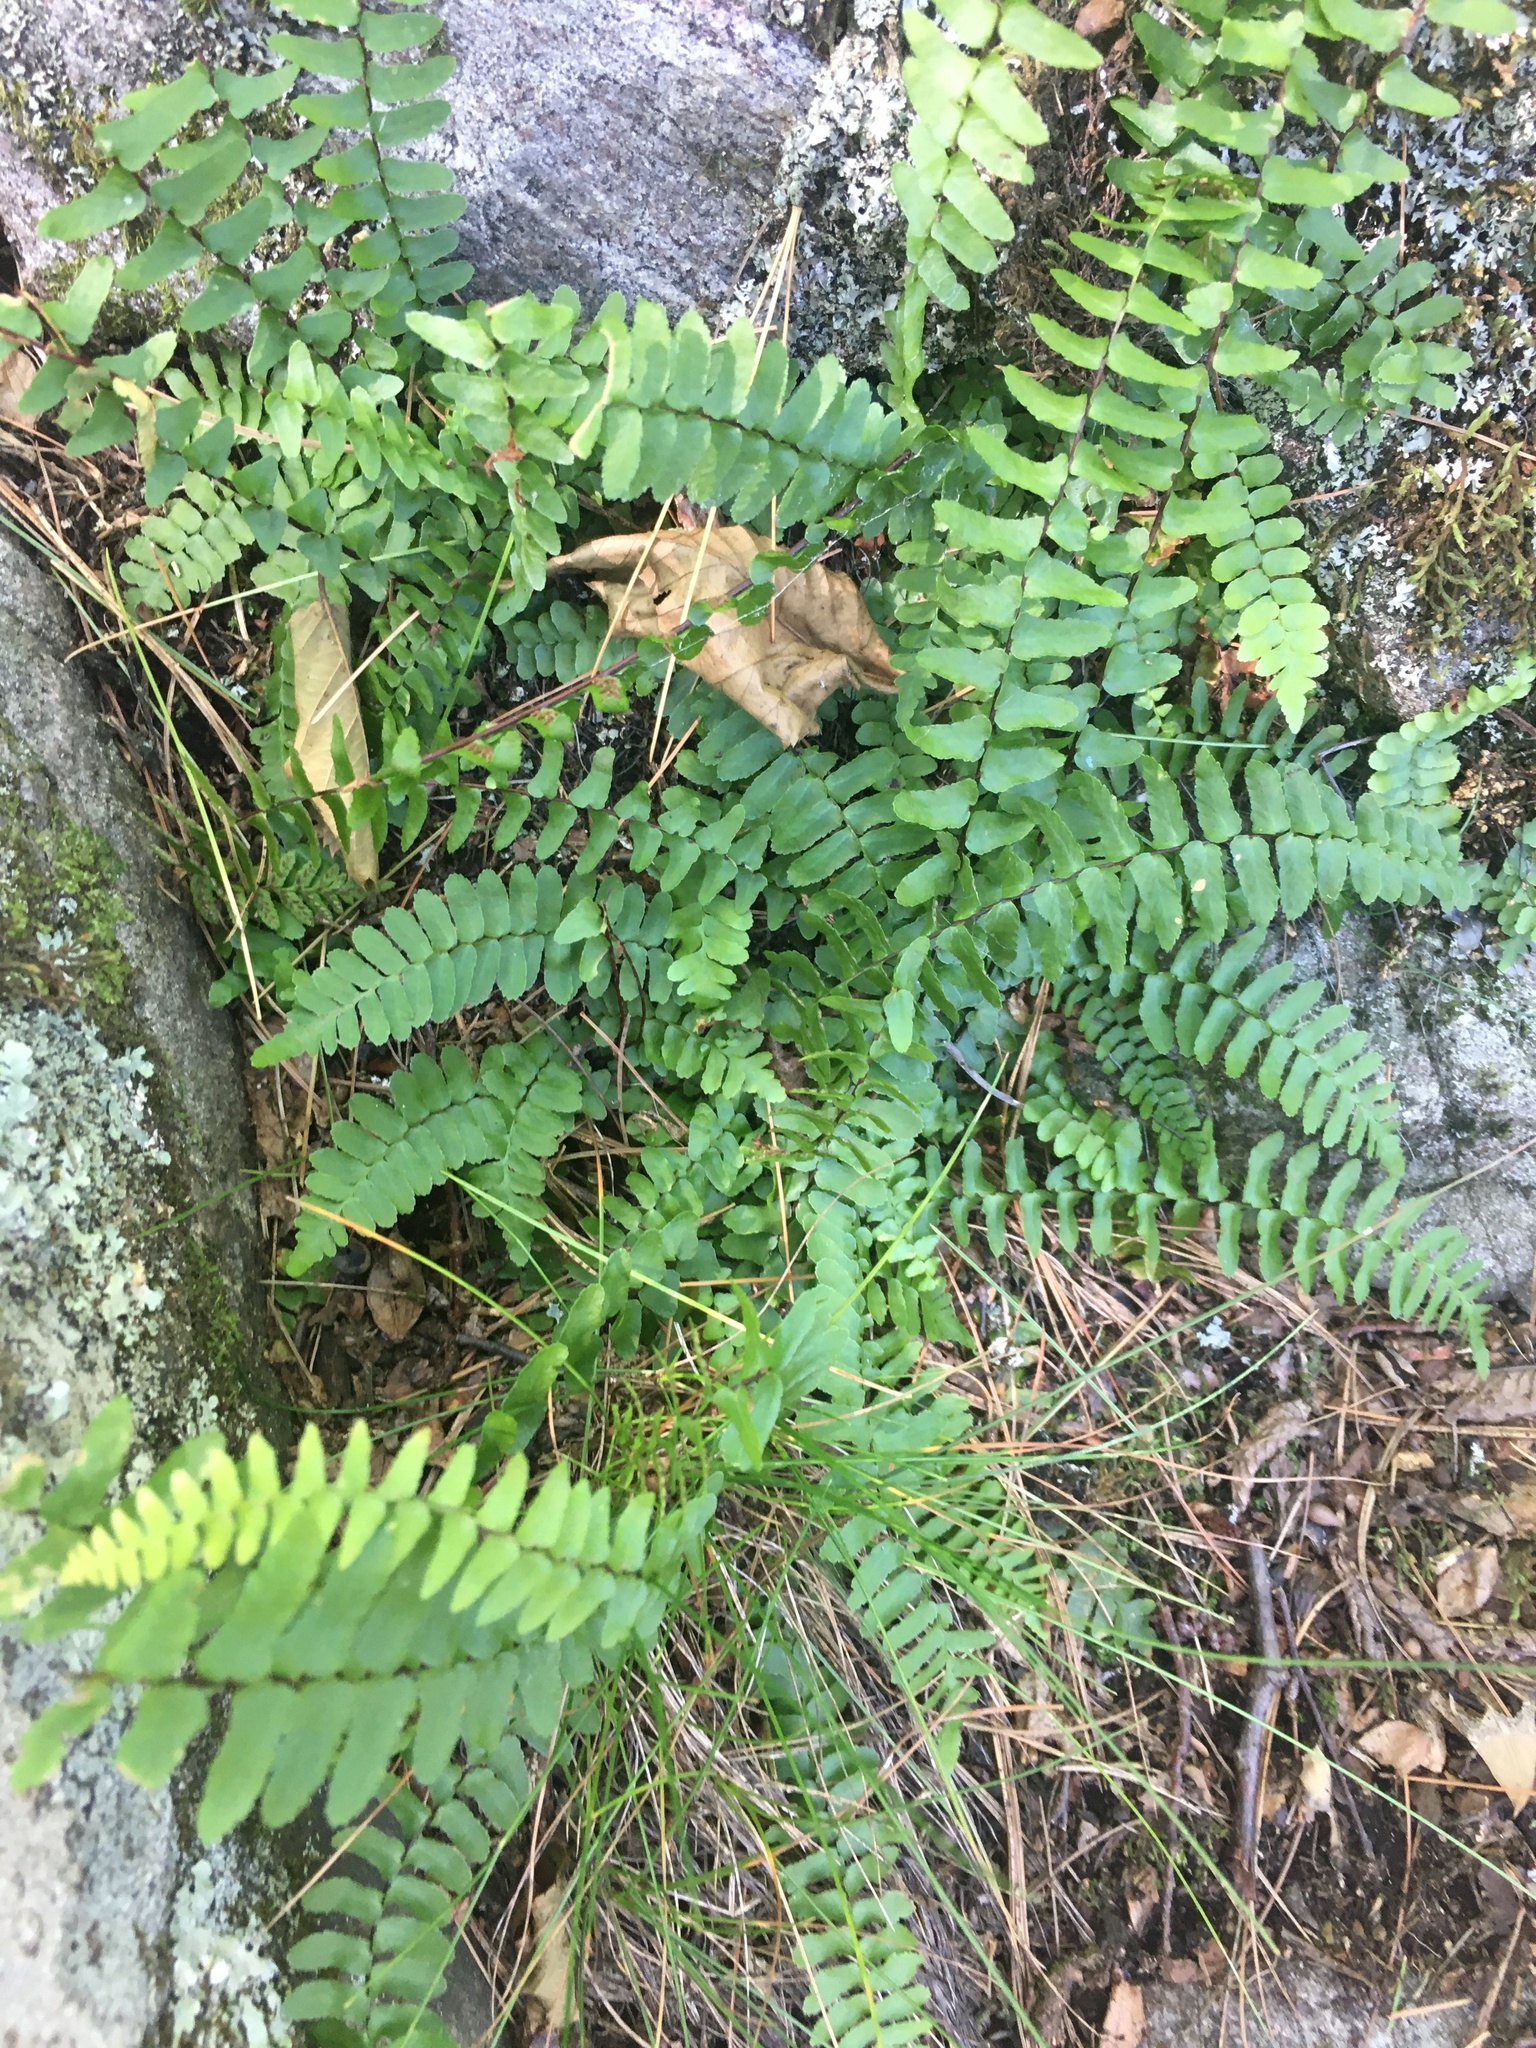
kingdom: Plantae
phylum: Tracheophyta
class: Polypodiopsida
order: Polypodiales
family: Aspleniaceae
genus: Asplenium
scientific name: Asplenium platyneuron
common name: Ebony spleenwort
